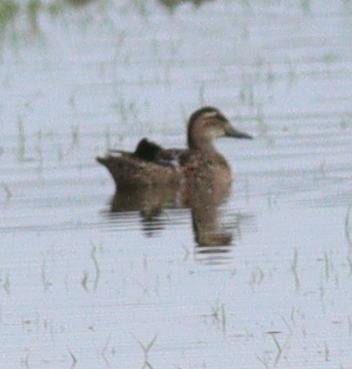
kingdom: Animalia
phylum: Chordata
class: Aves
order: Anseriformes
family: Anatidae
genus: Spatula
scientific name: Spatula querquedula
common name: Garganey
